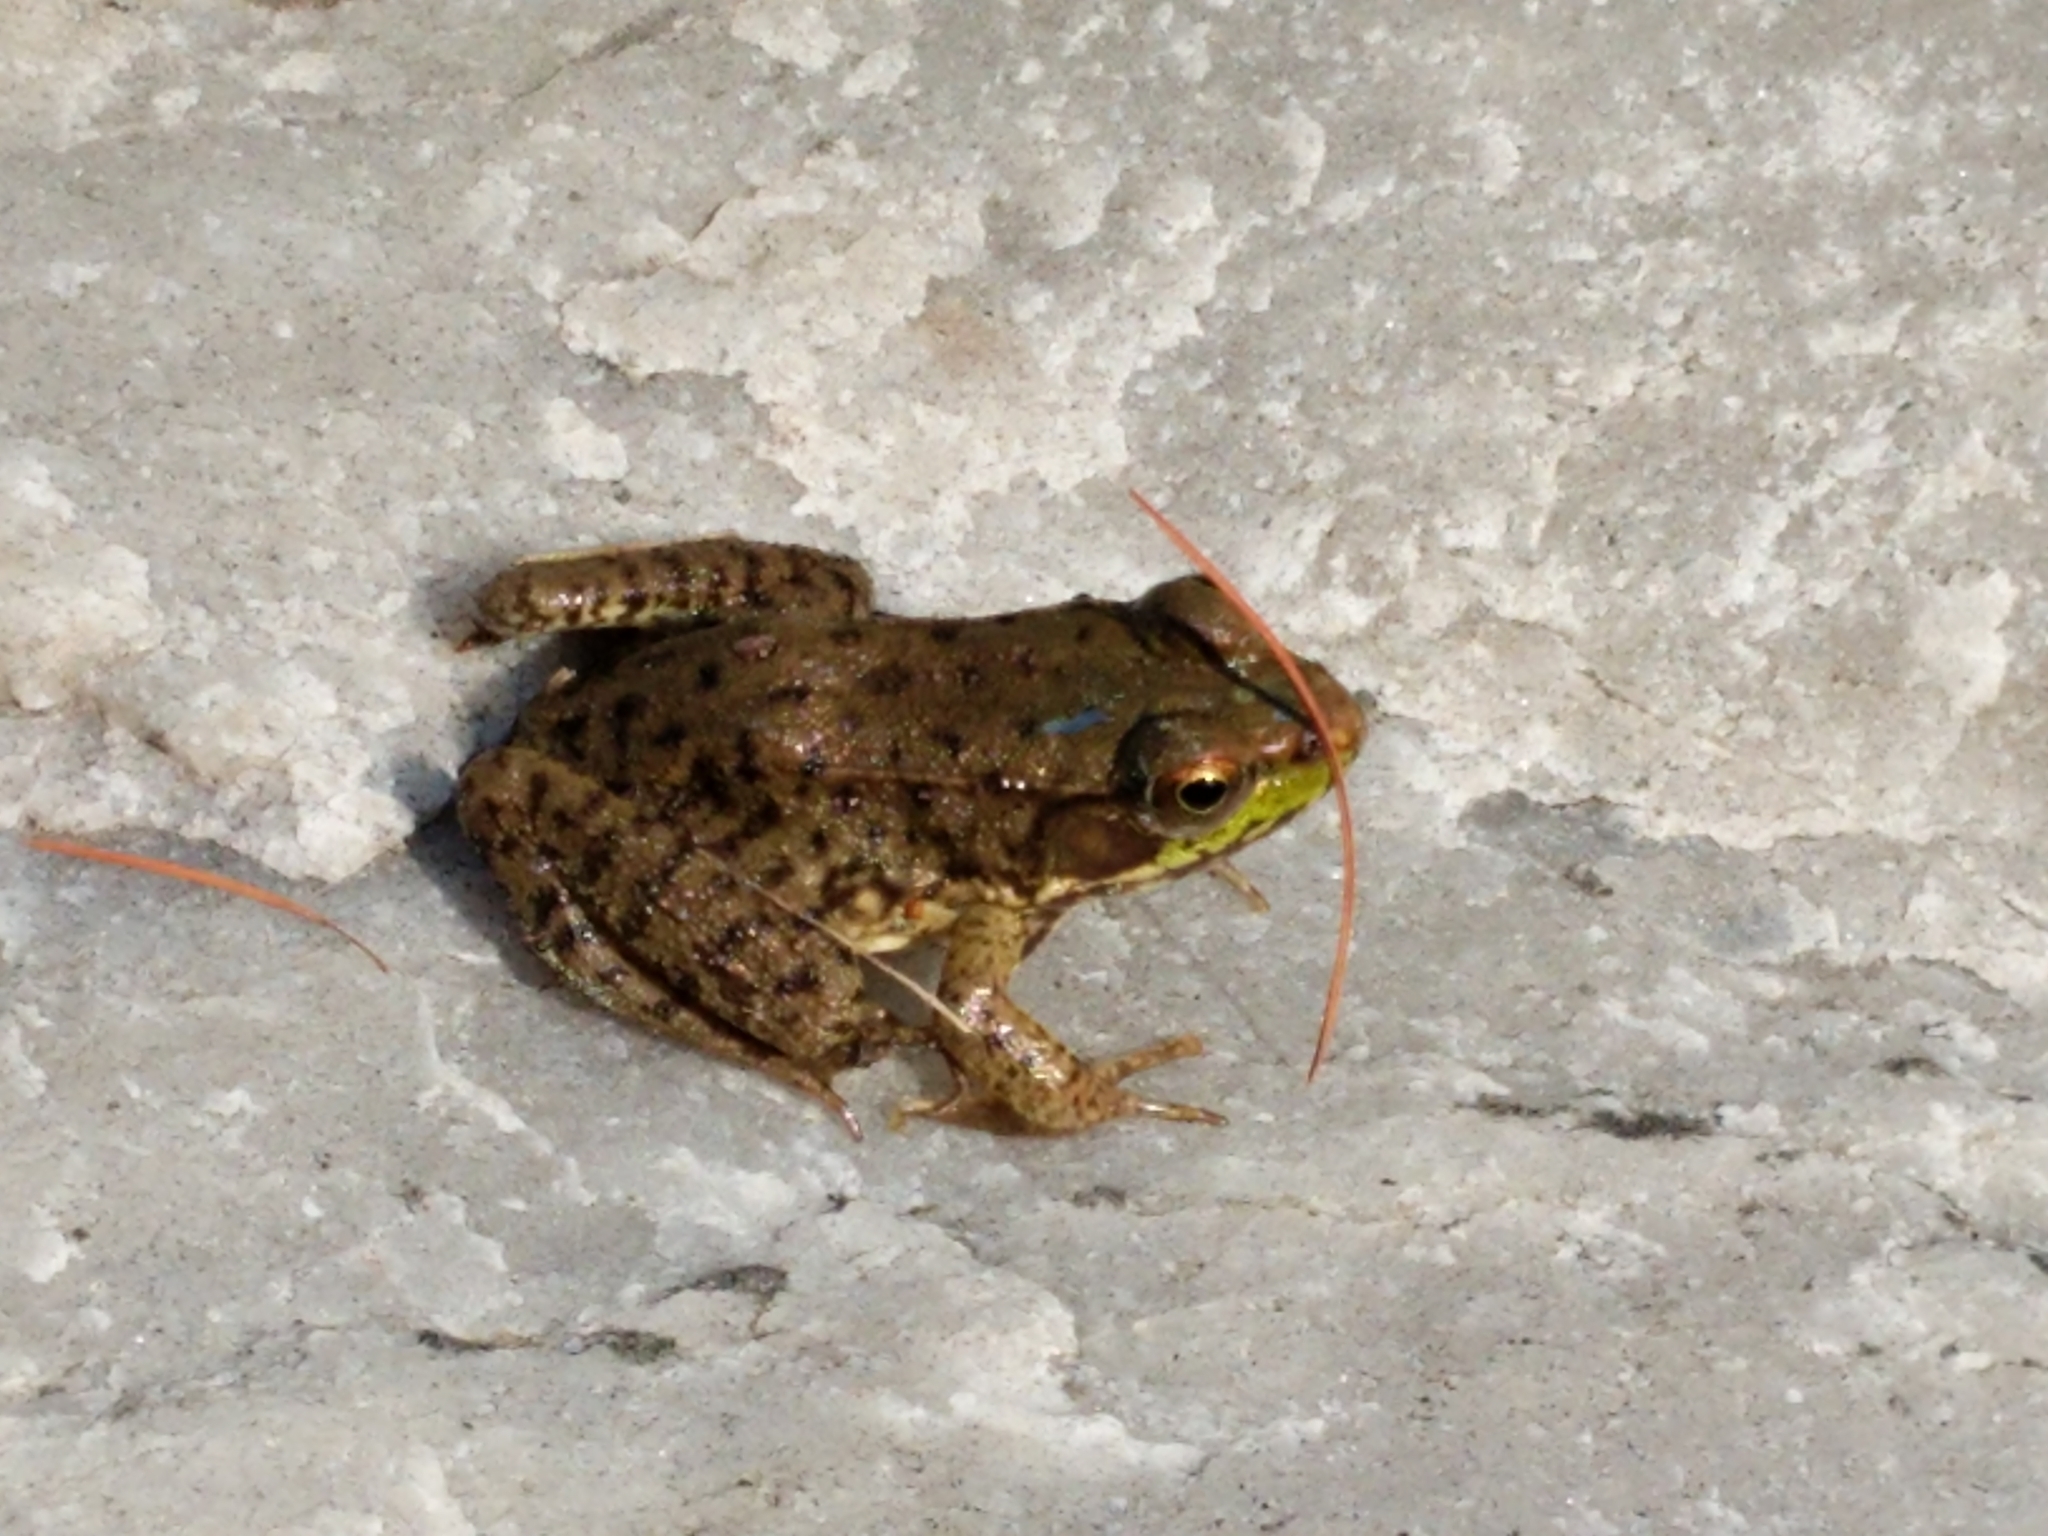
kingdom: Animalia
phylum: Chordata
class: Amphibia
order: Anura
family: Ranidae
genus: Lithobates
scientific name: Lithobates clamitans
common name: Green frog
